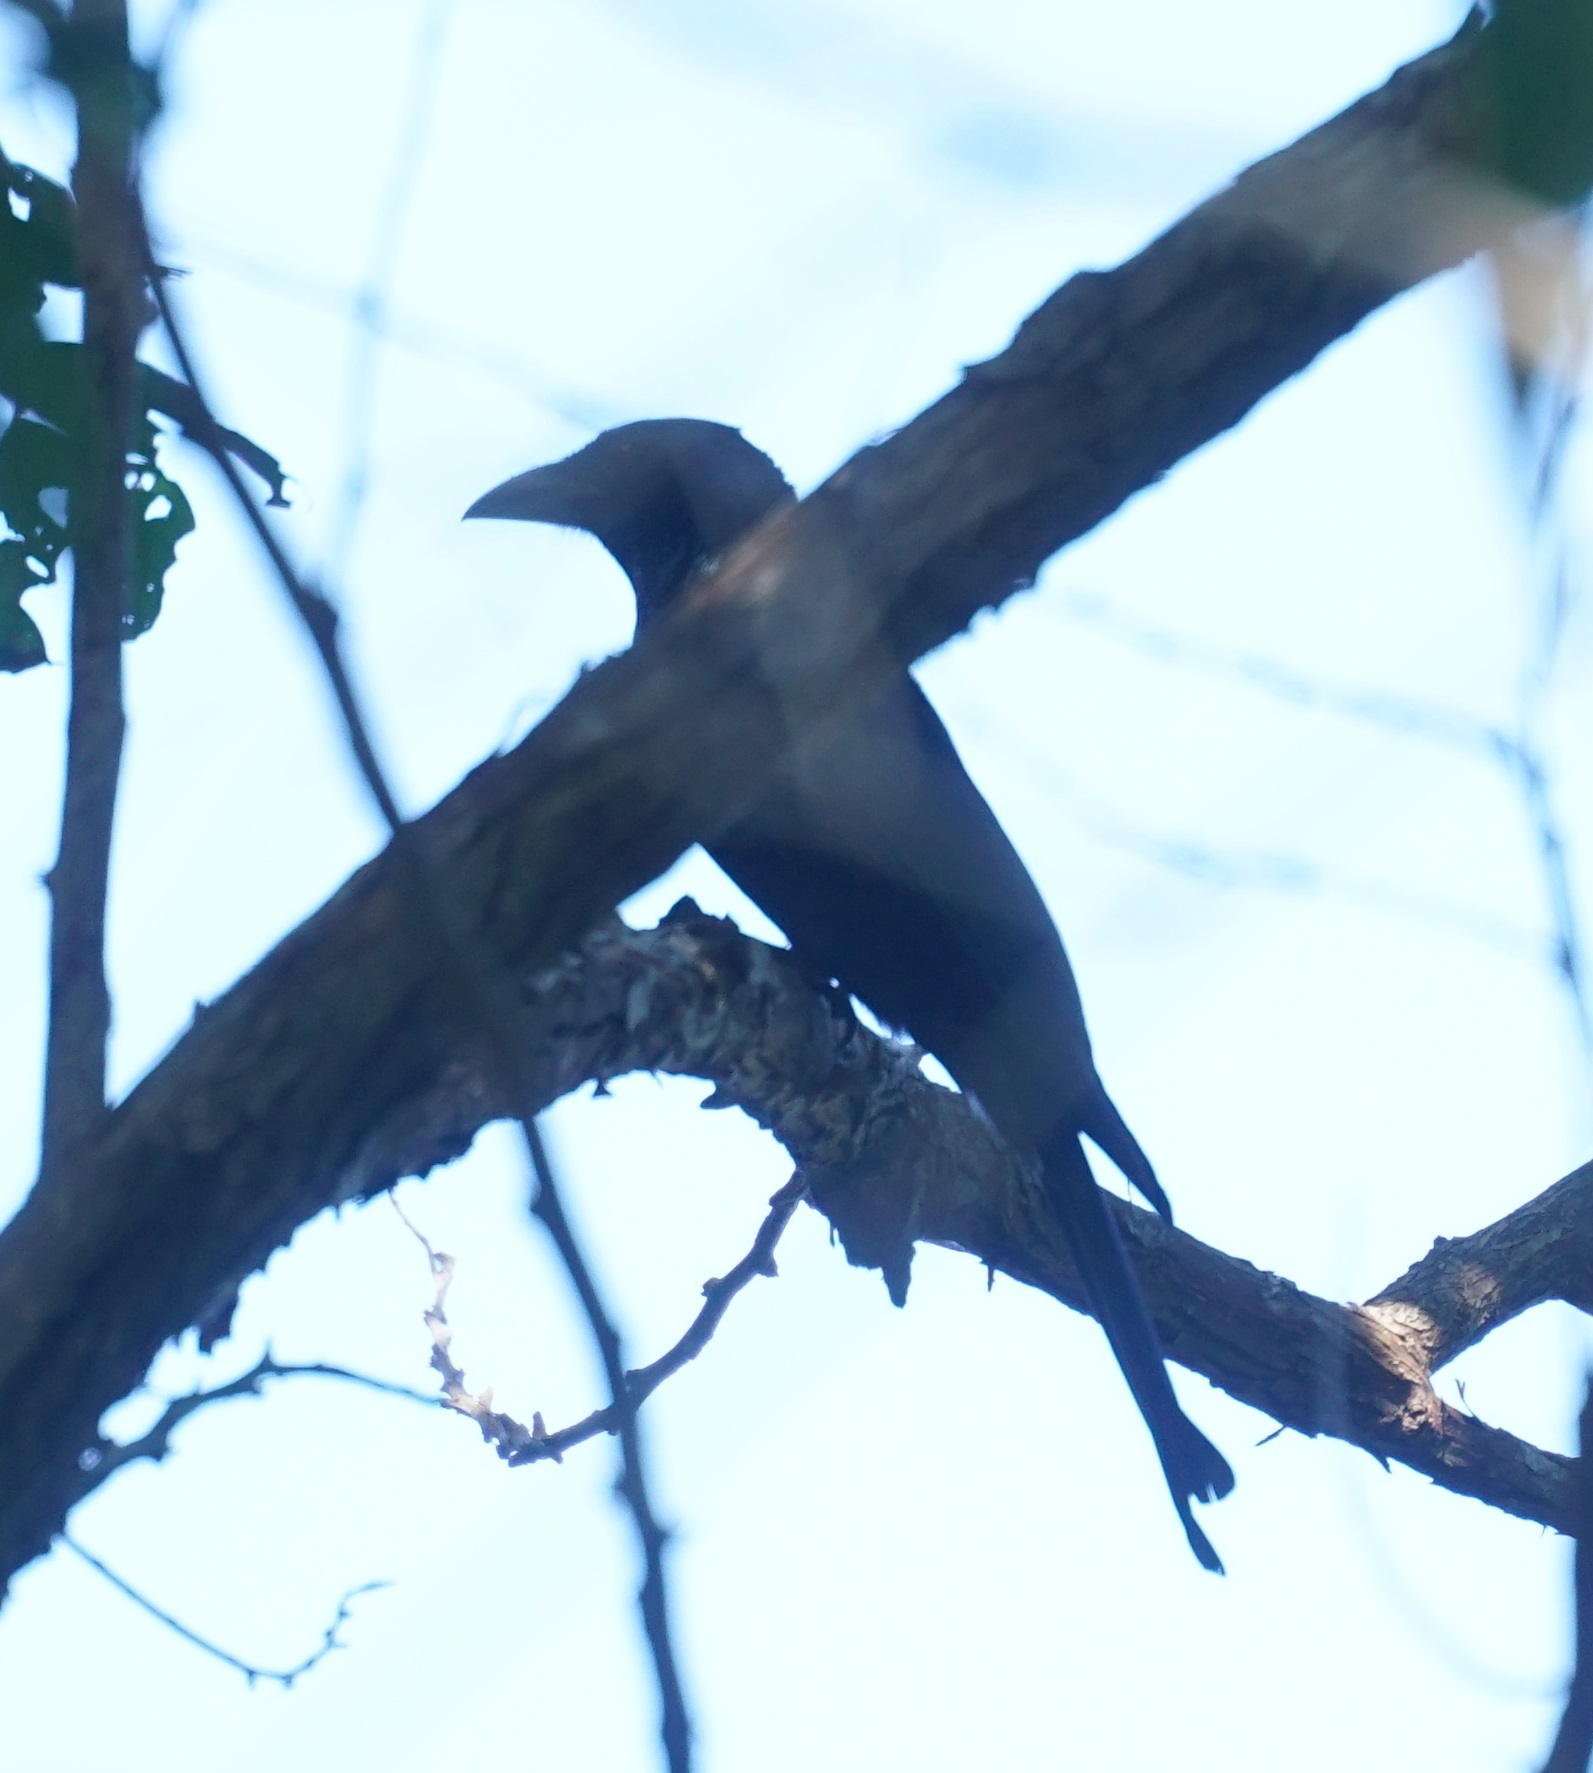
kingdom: Animalia
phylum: Chordata
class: Aves
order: Passeriformes
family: Dicruridae
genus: Dicrurus
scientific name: Dicrurus bracteatus
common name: Spangled drongo
